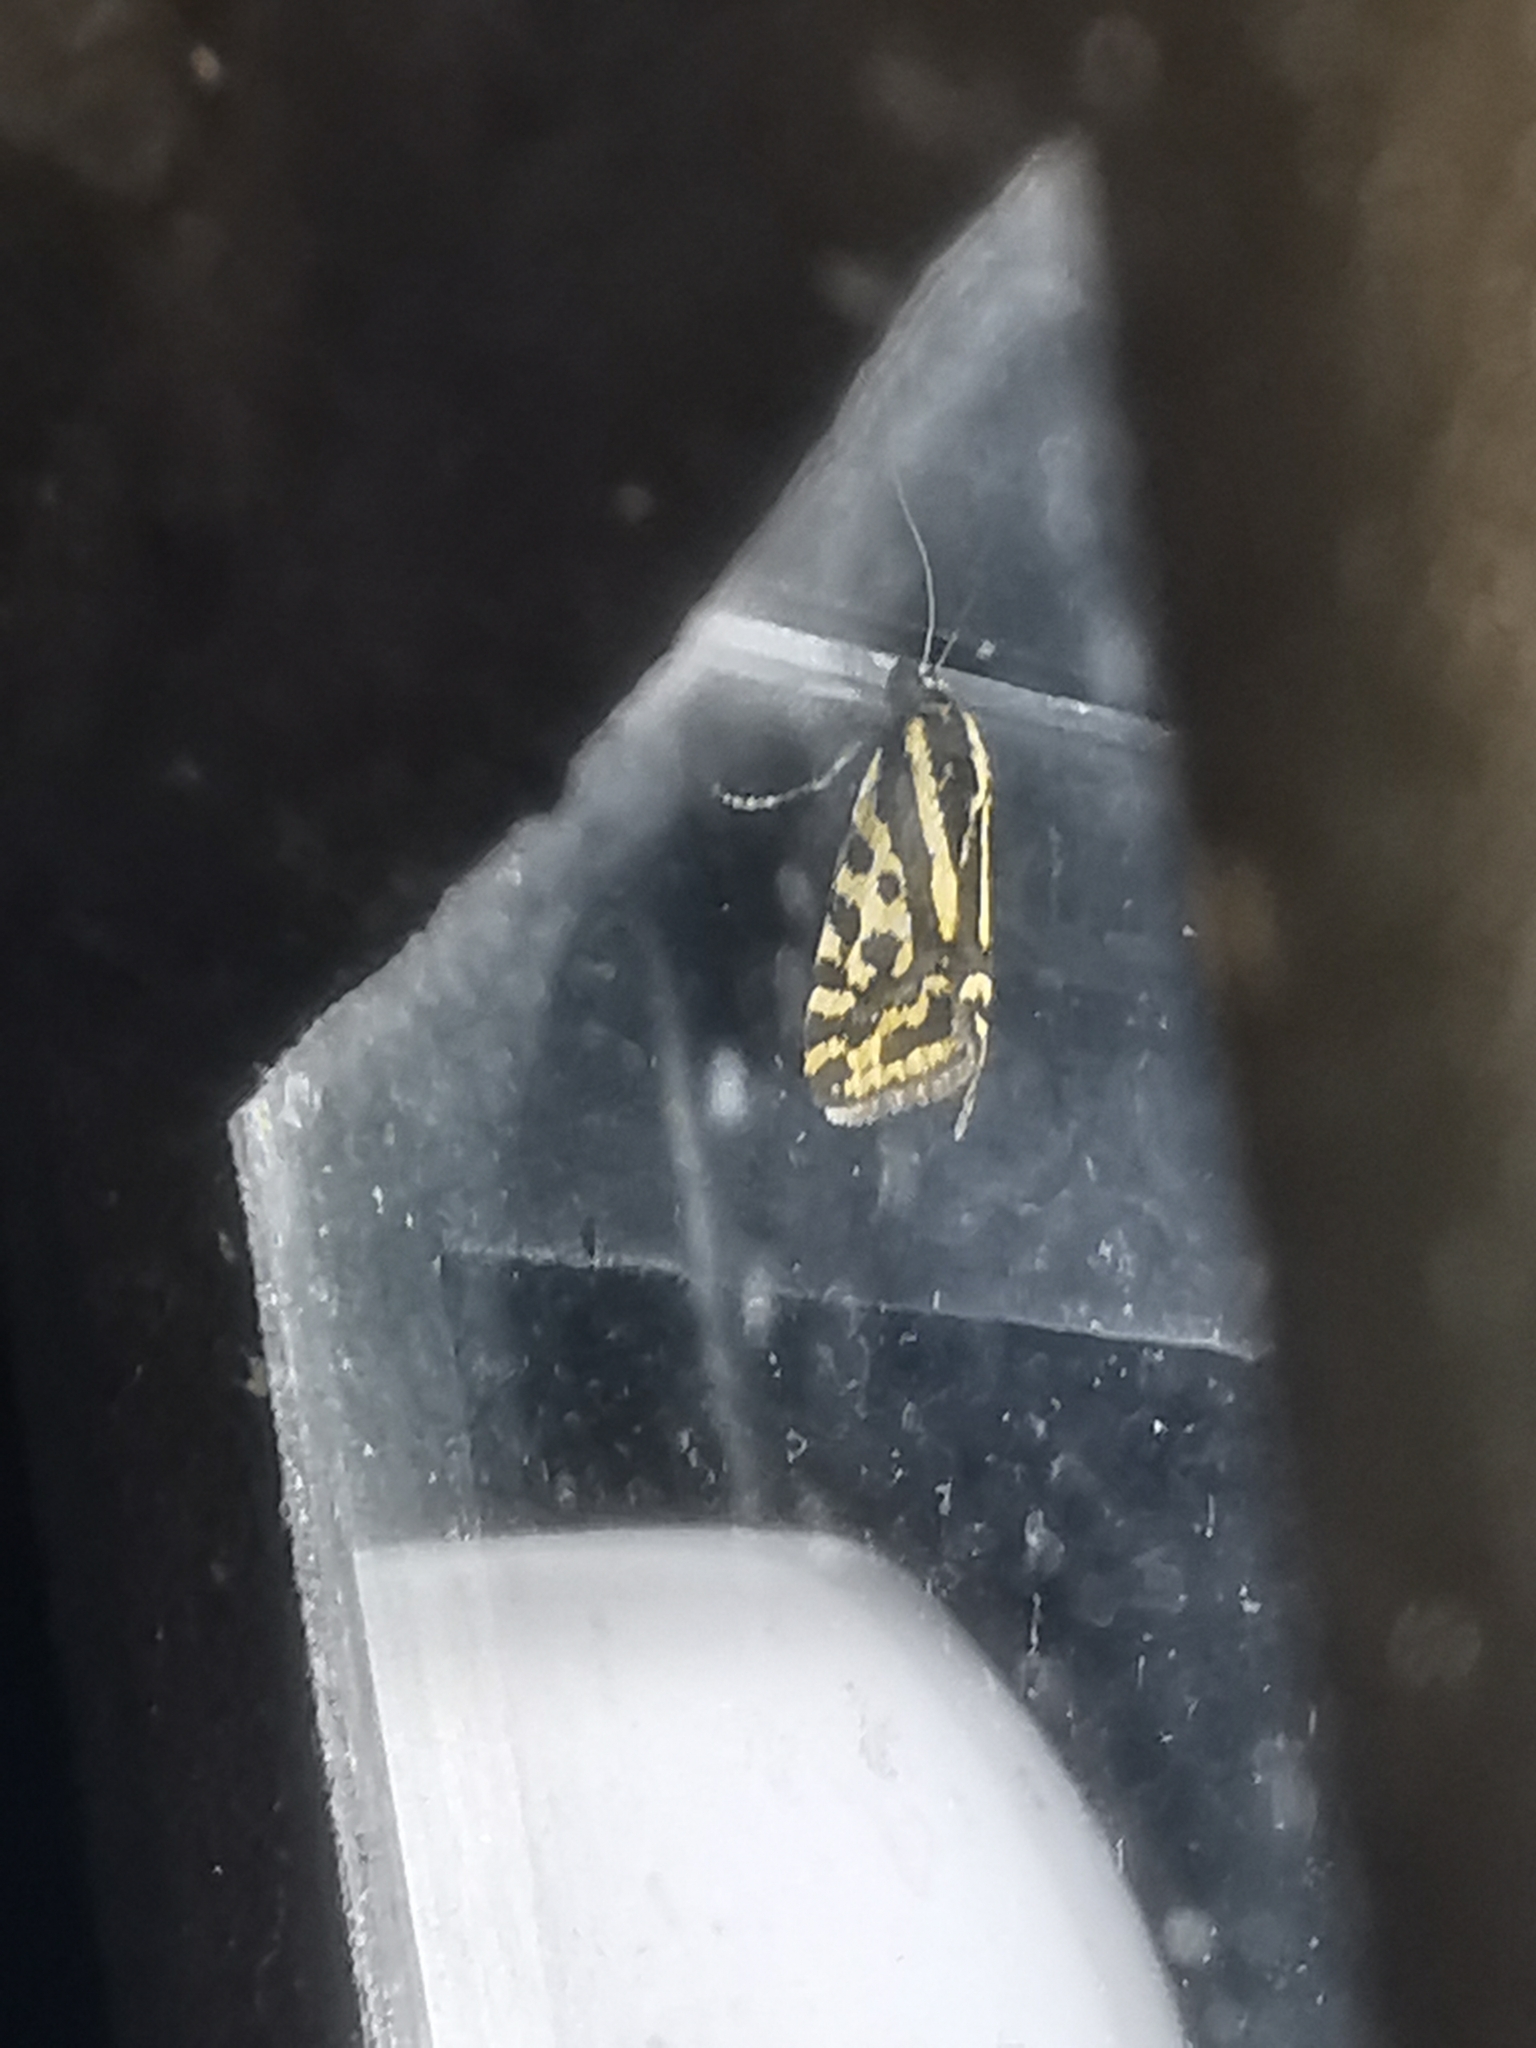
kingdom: Animalia
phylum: Arthropoda
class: Insecta
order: Lepidoptera
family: Noctuidae
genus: Acontia
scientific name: Acontia trabealis
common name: Spotted sulphur
